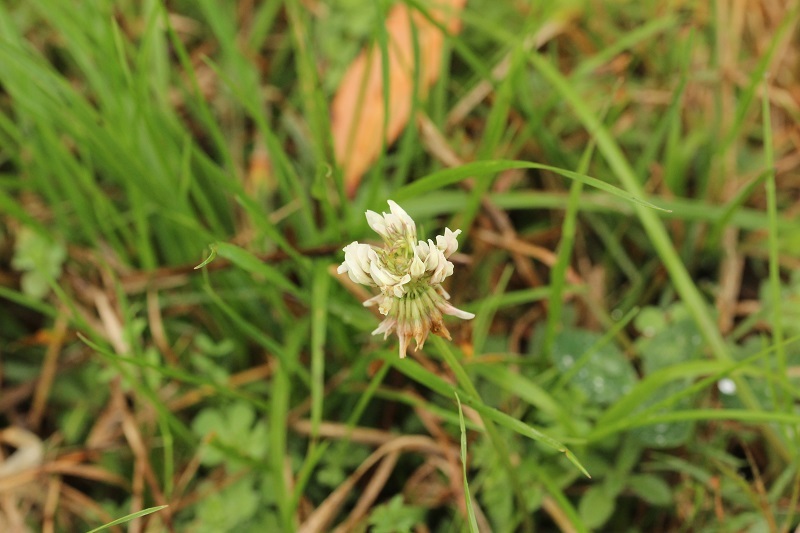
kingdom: Plantae
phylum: Tracheophyta
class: Magnoliopsida
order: Fabales
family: Fabaceae
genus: Trifolium
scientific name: Trifolium repens
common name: White clover
